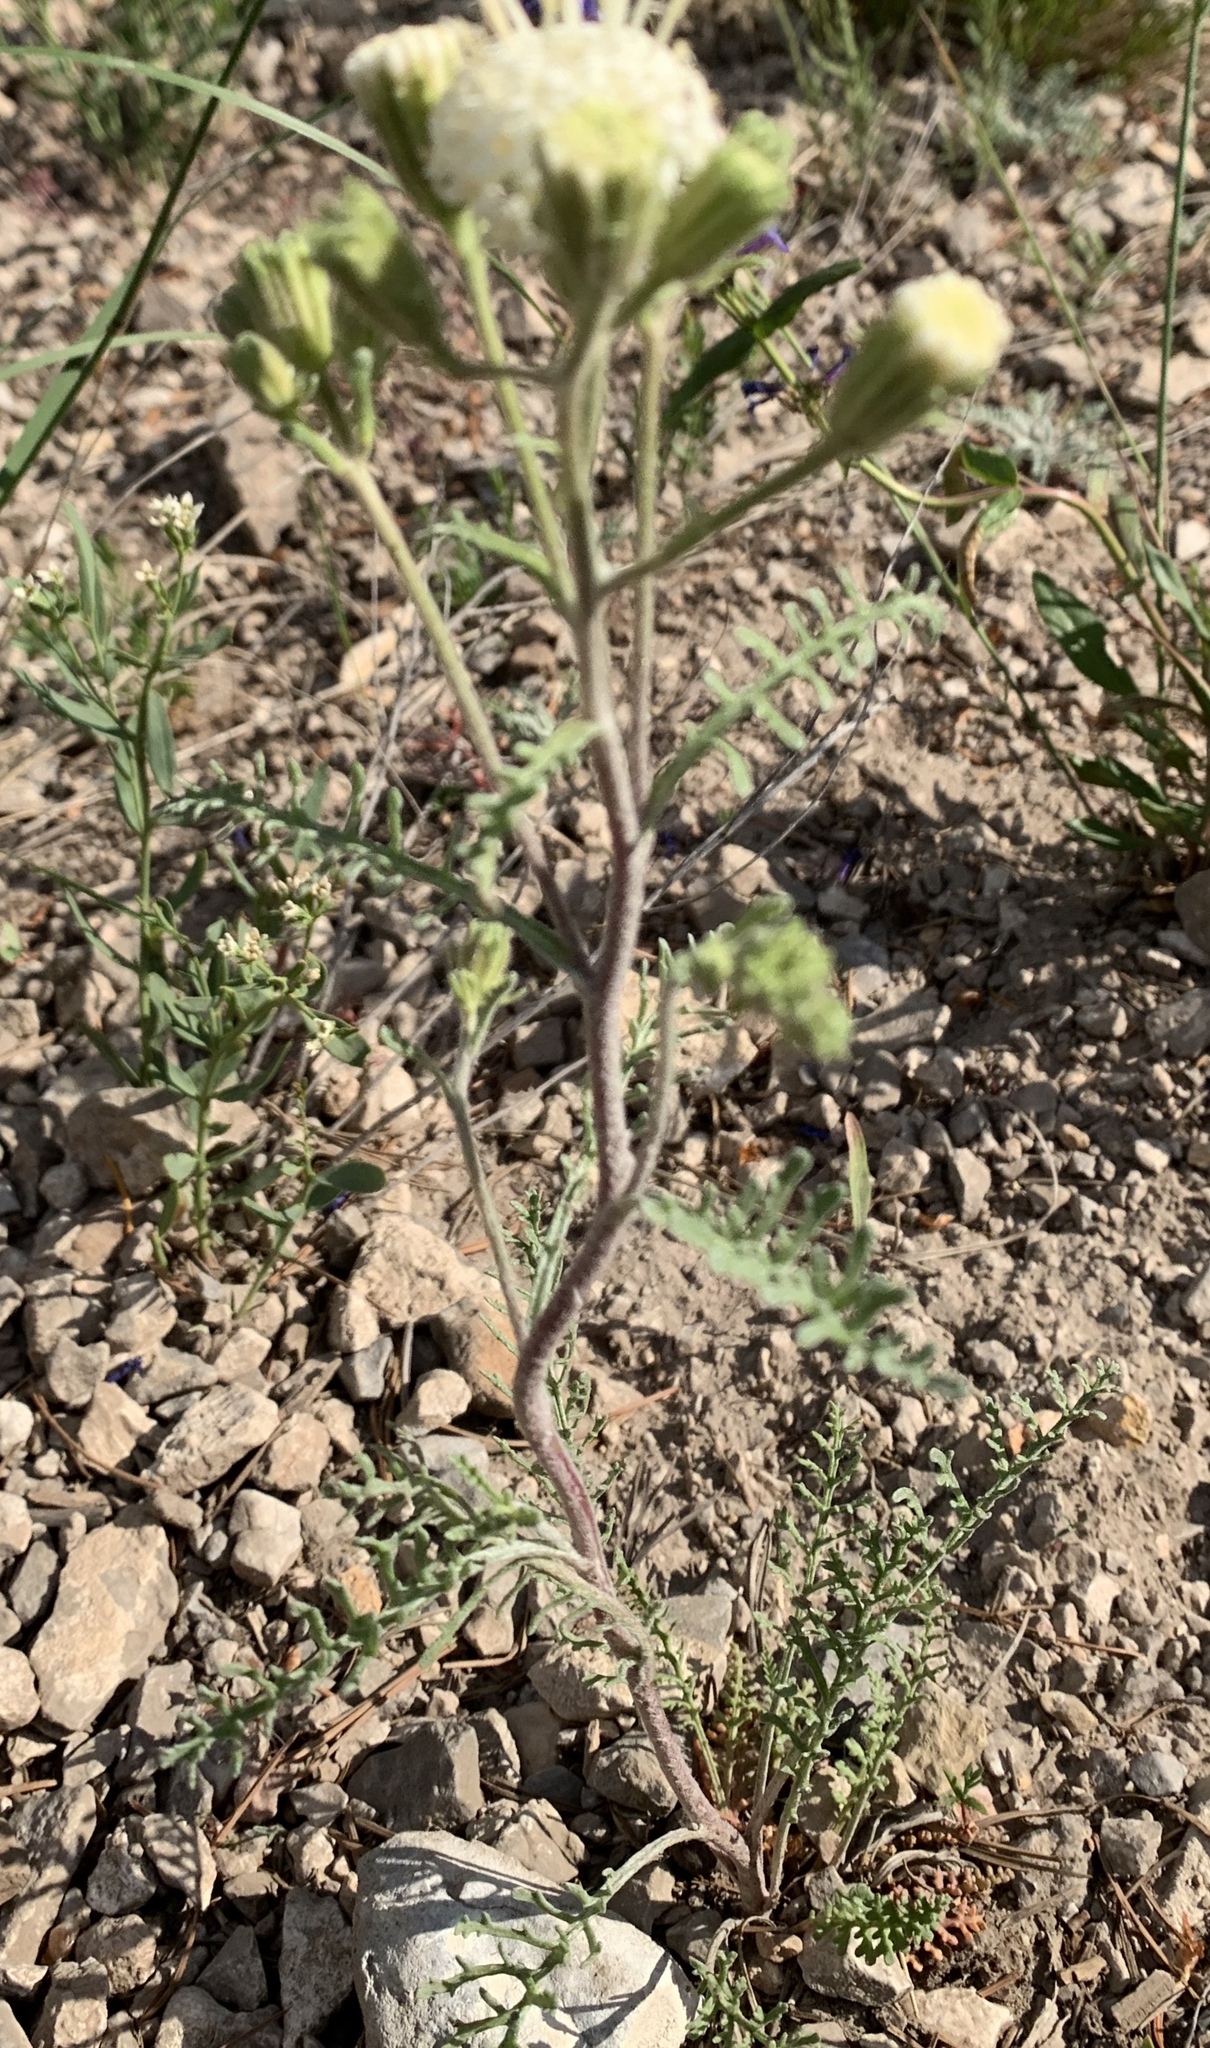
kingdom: Plantae
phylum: Tracheophyta
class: Magnoliopsida
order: Asterales
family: Asteraceae
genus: Chaenactis
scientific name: Chaenactis douglasii
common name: Hoary pincushion
